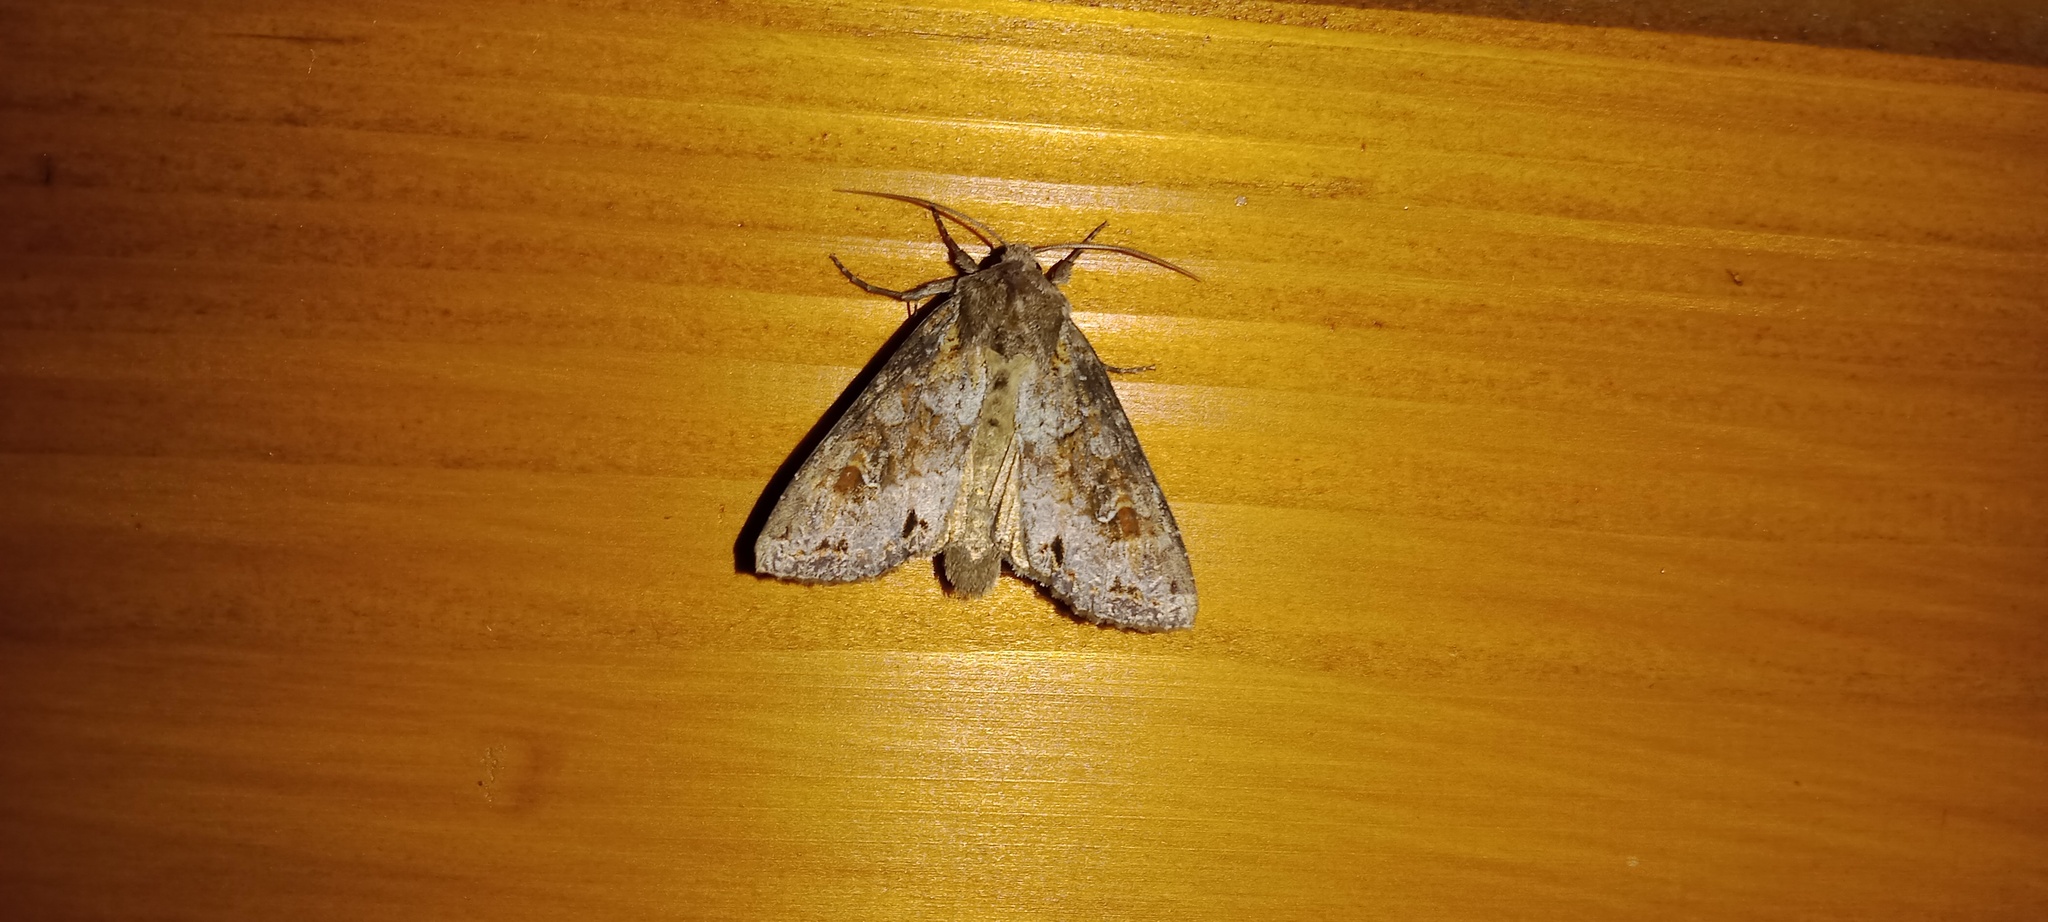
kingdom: Animalia
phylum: Arthropoda
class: Insecta
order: Lepidoptera
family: Noctuidae
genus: Polia
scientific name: Polia bombycina
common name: Pale shining brown
